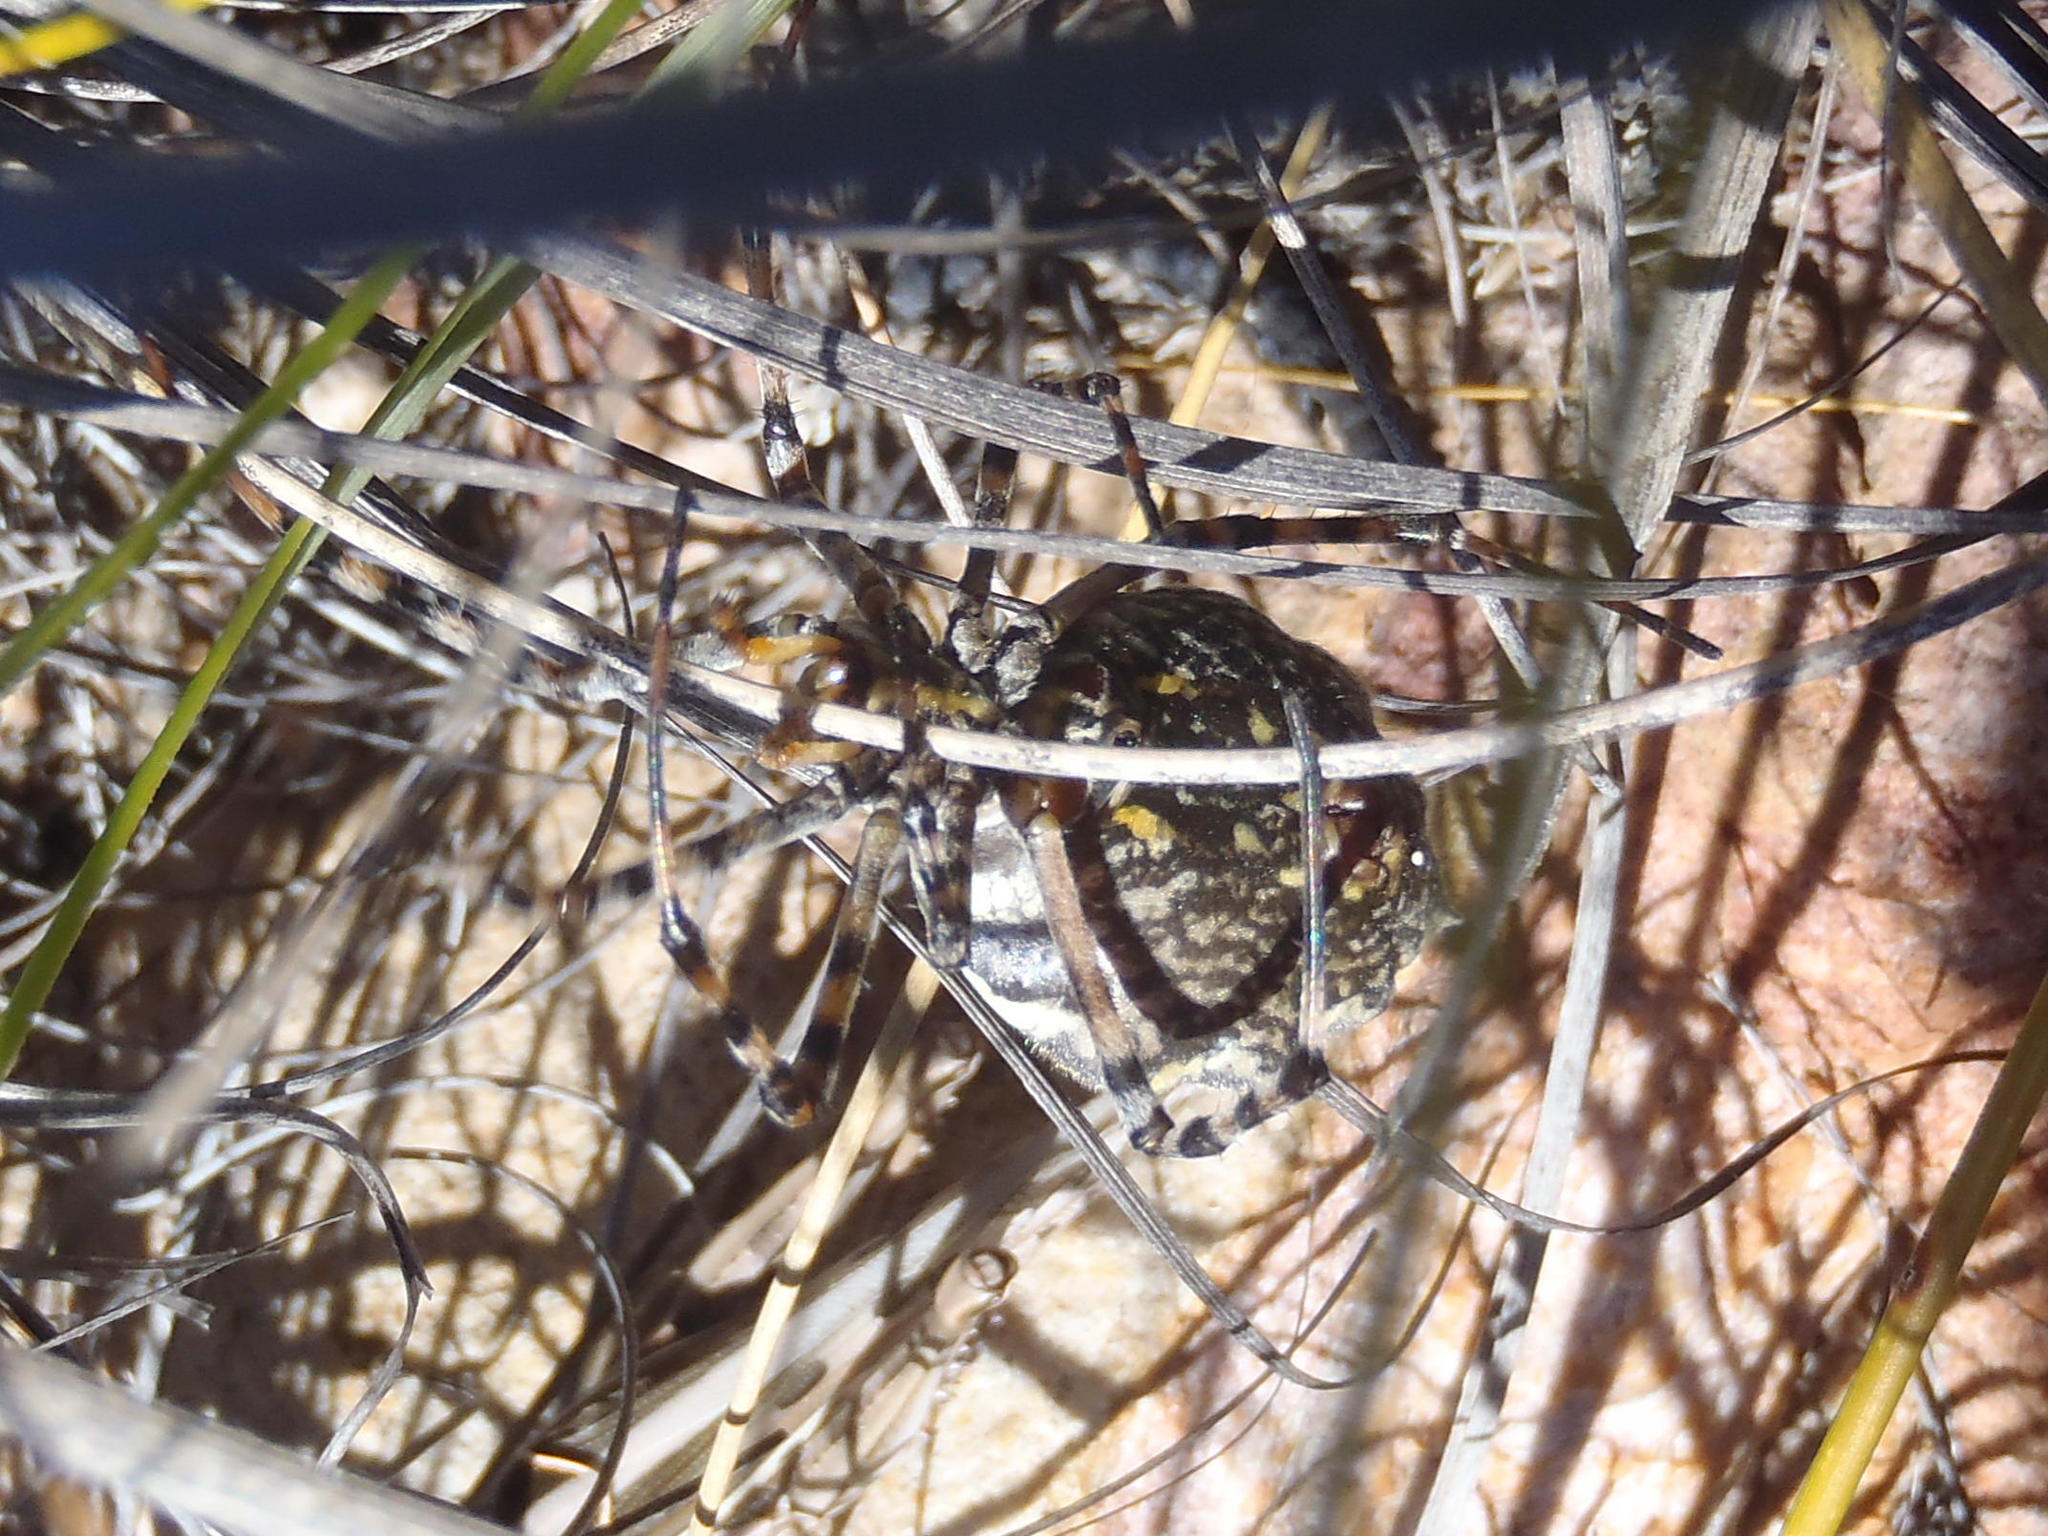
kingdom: Animalia
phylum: Arthropoda
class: Arachnida
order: Araneae
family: Araneidae
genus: Argiope
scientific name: Argiope australis
